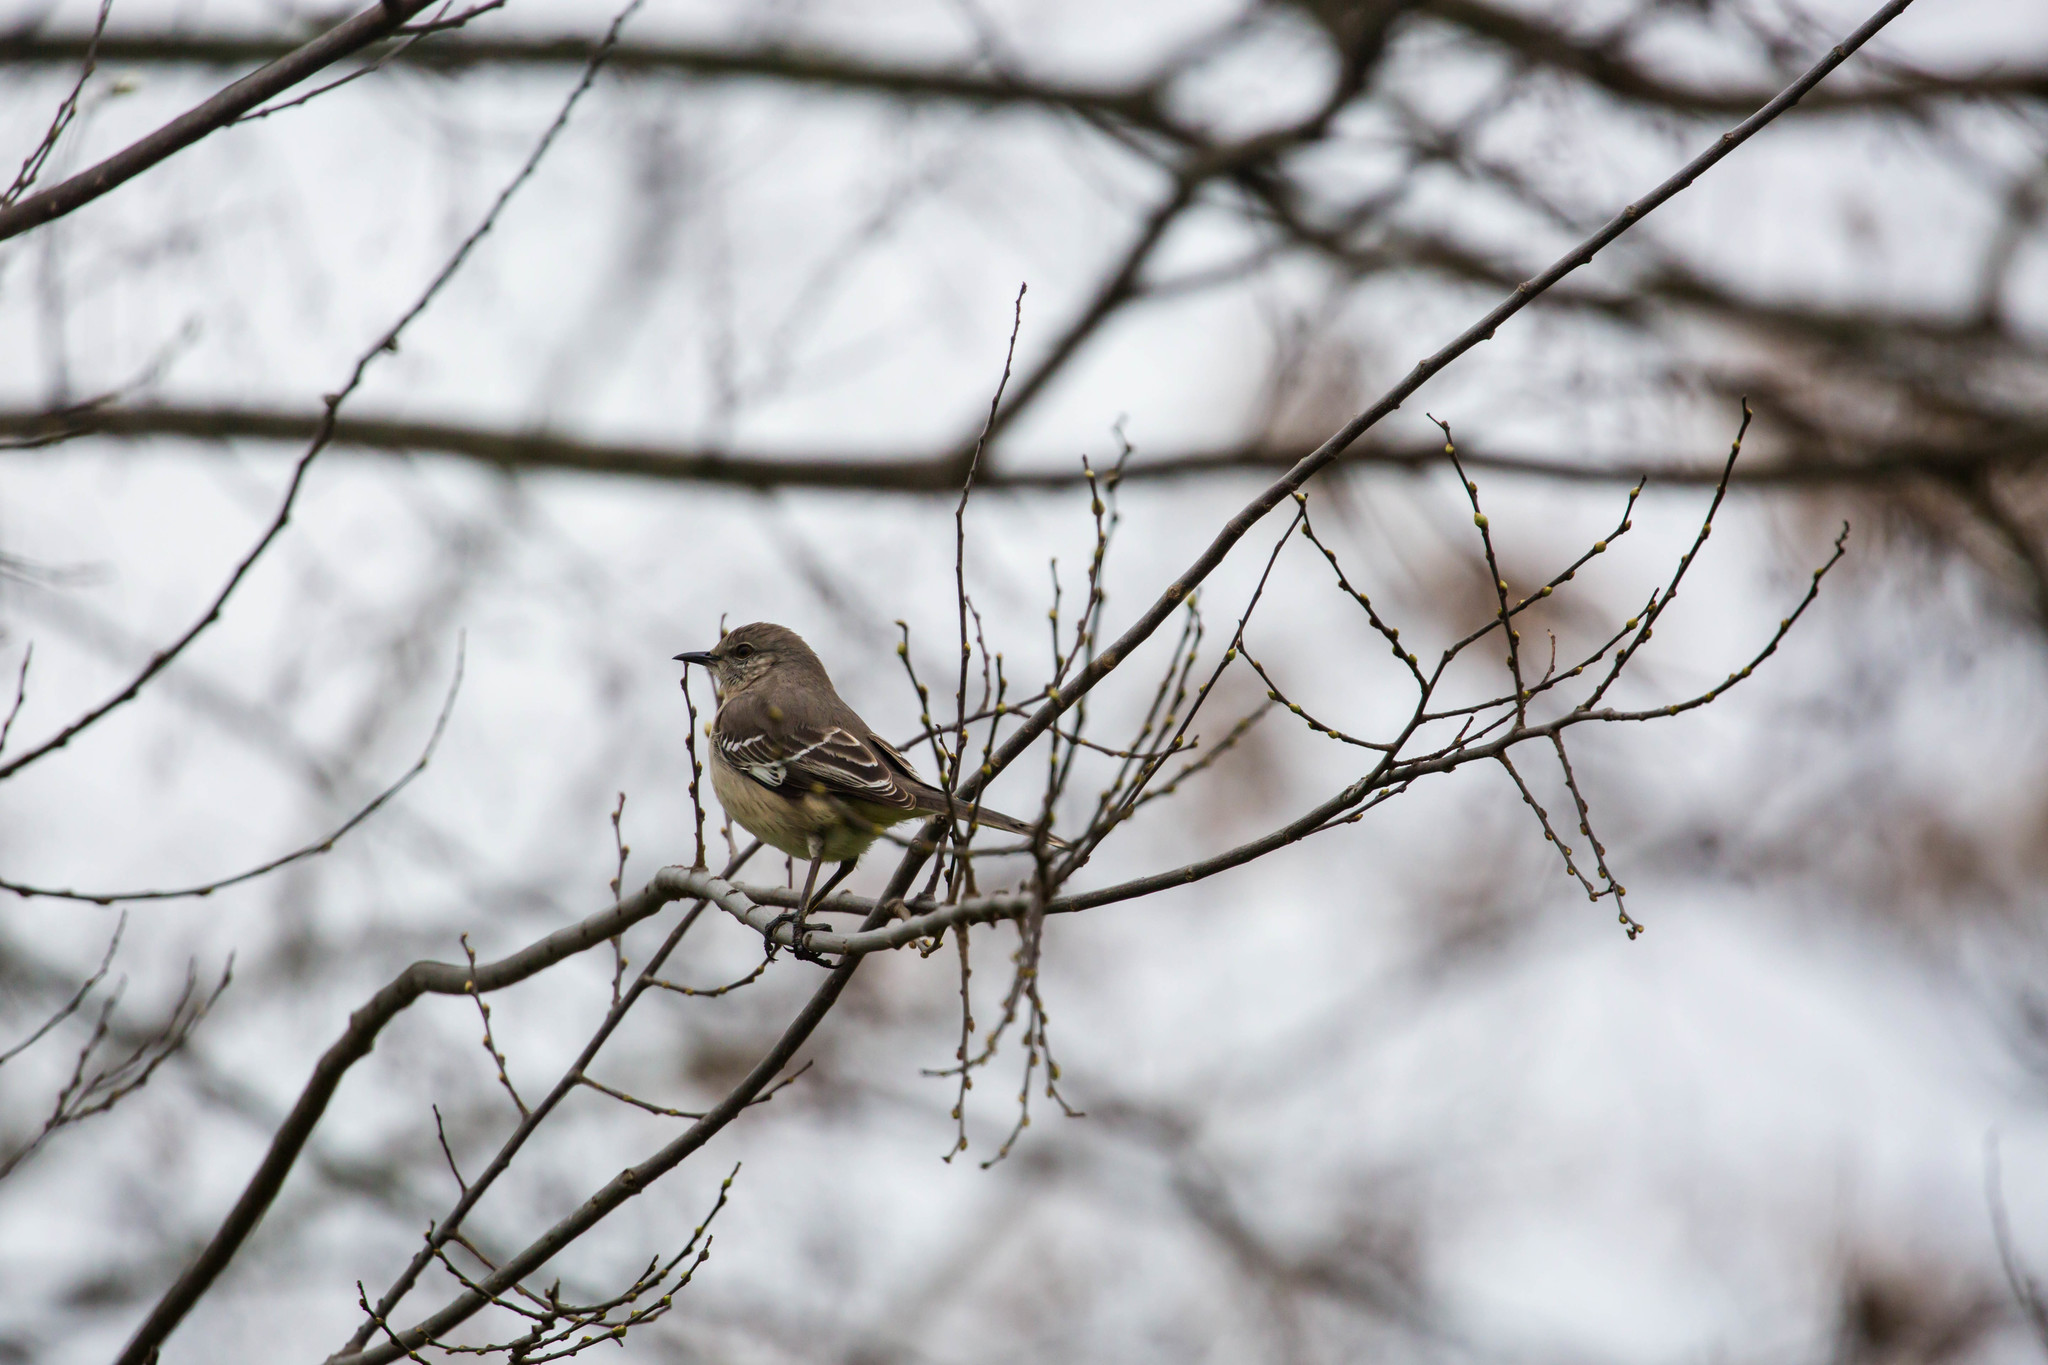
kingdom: Animalia
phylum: Chordata
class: Aves
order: Passeriformes
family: Mimidae
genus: Mimus
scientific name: Mimus polyglottos
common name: Northern mockingbird
